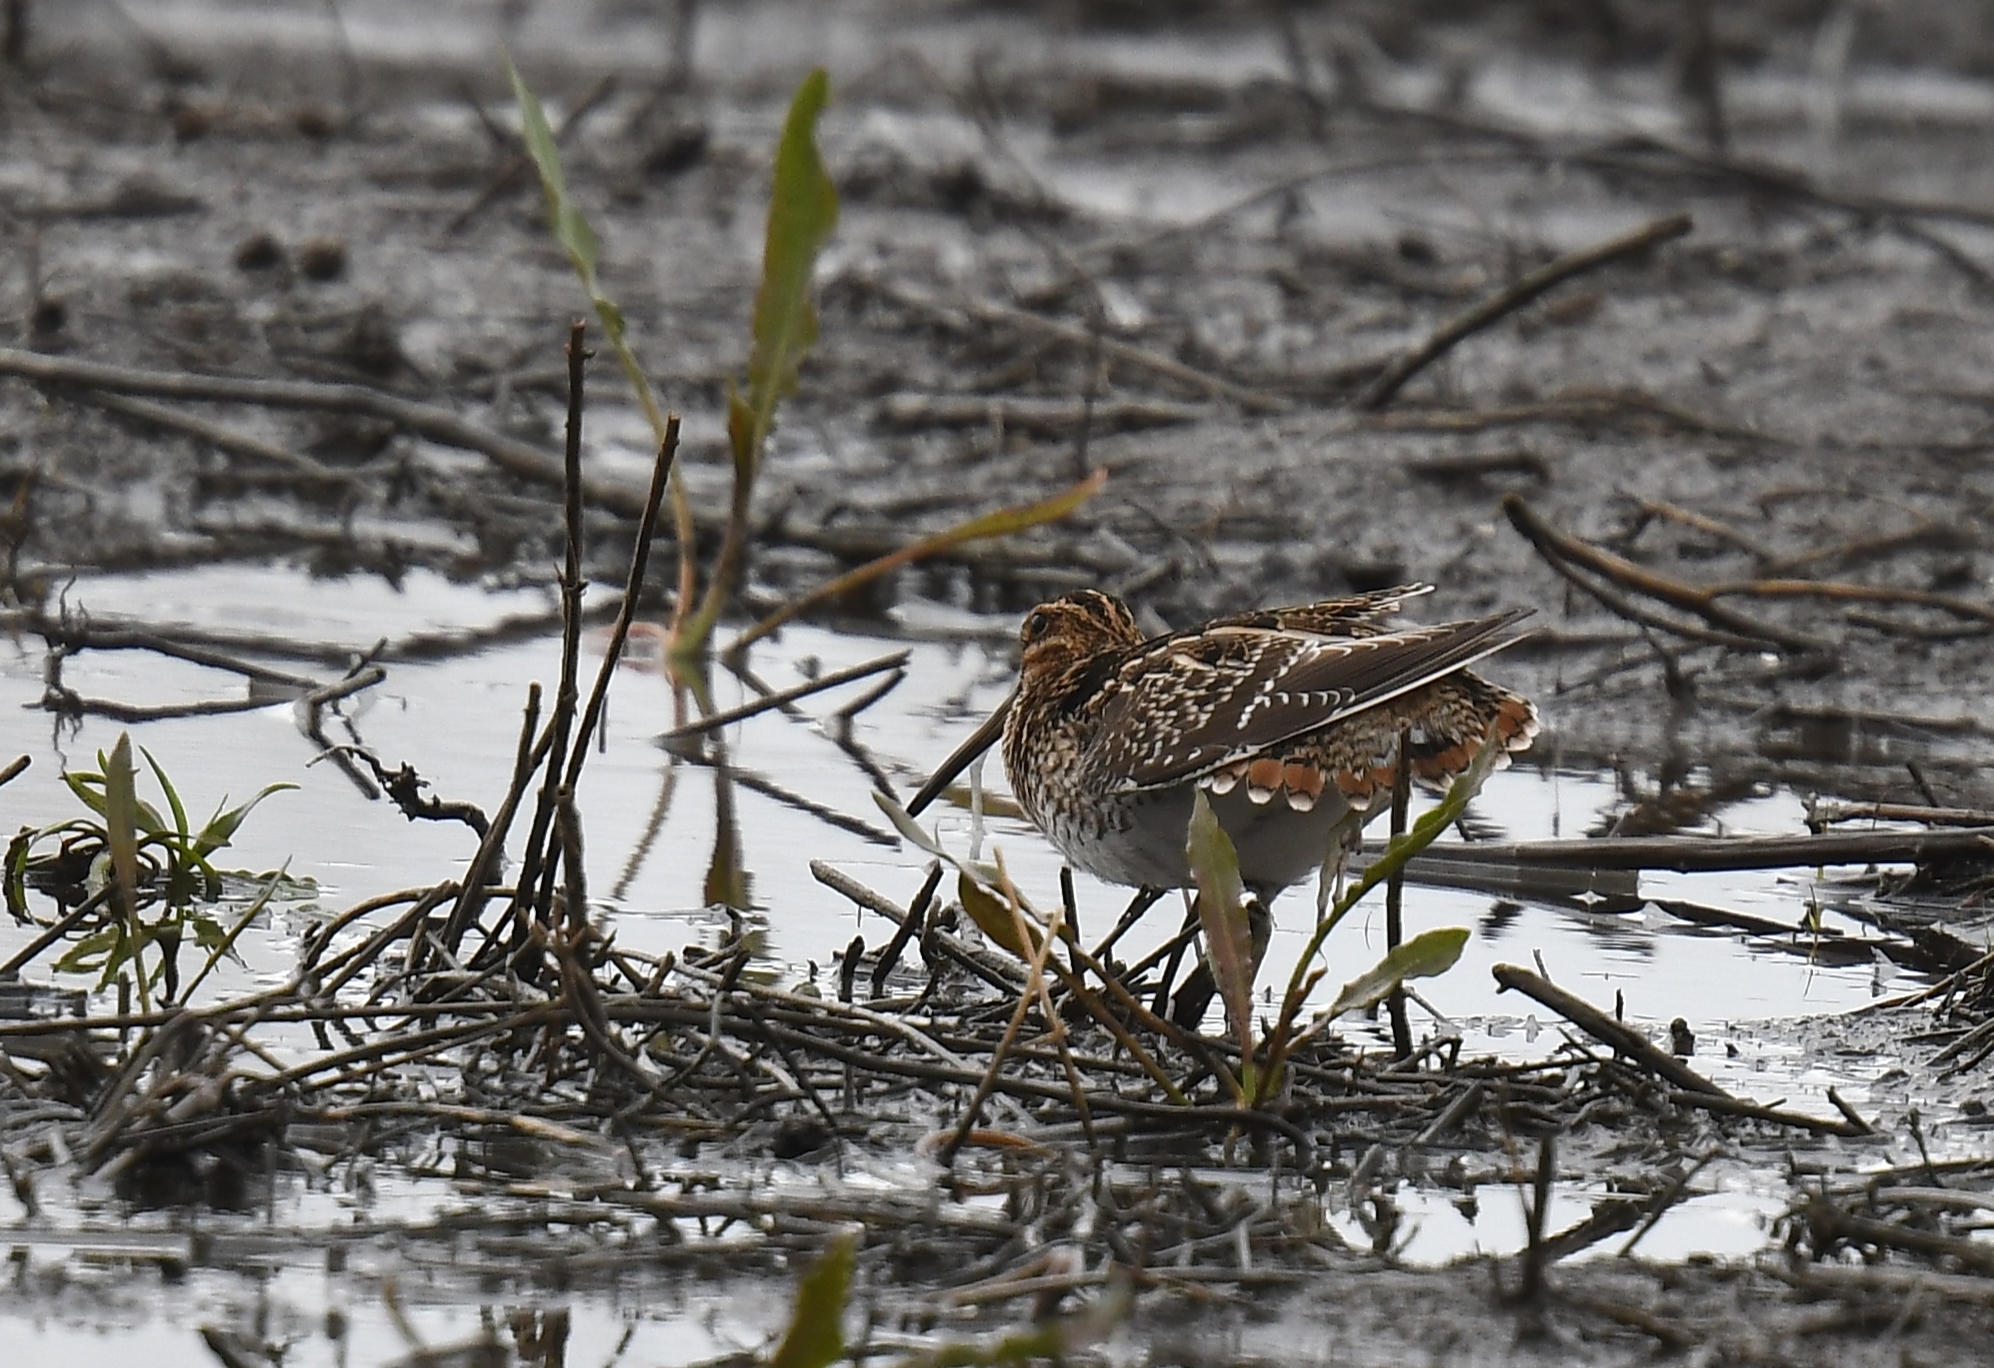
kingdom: Animalia
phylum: Chordata
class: Aves
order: Charadriiformes
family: Scolopacidae
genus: Gallinago
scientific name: Gallinago delicata
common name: Wilson's snipe
